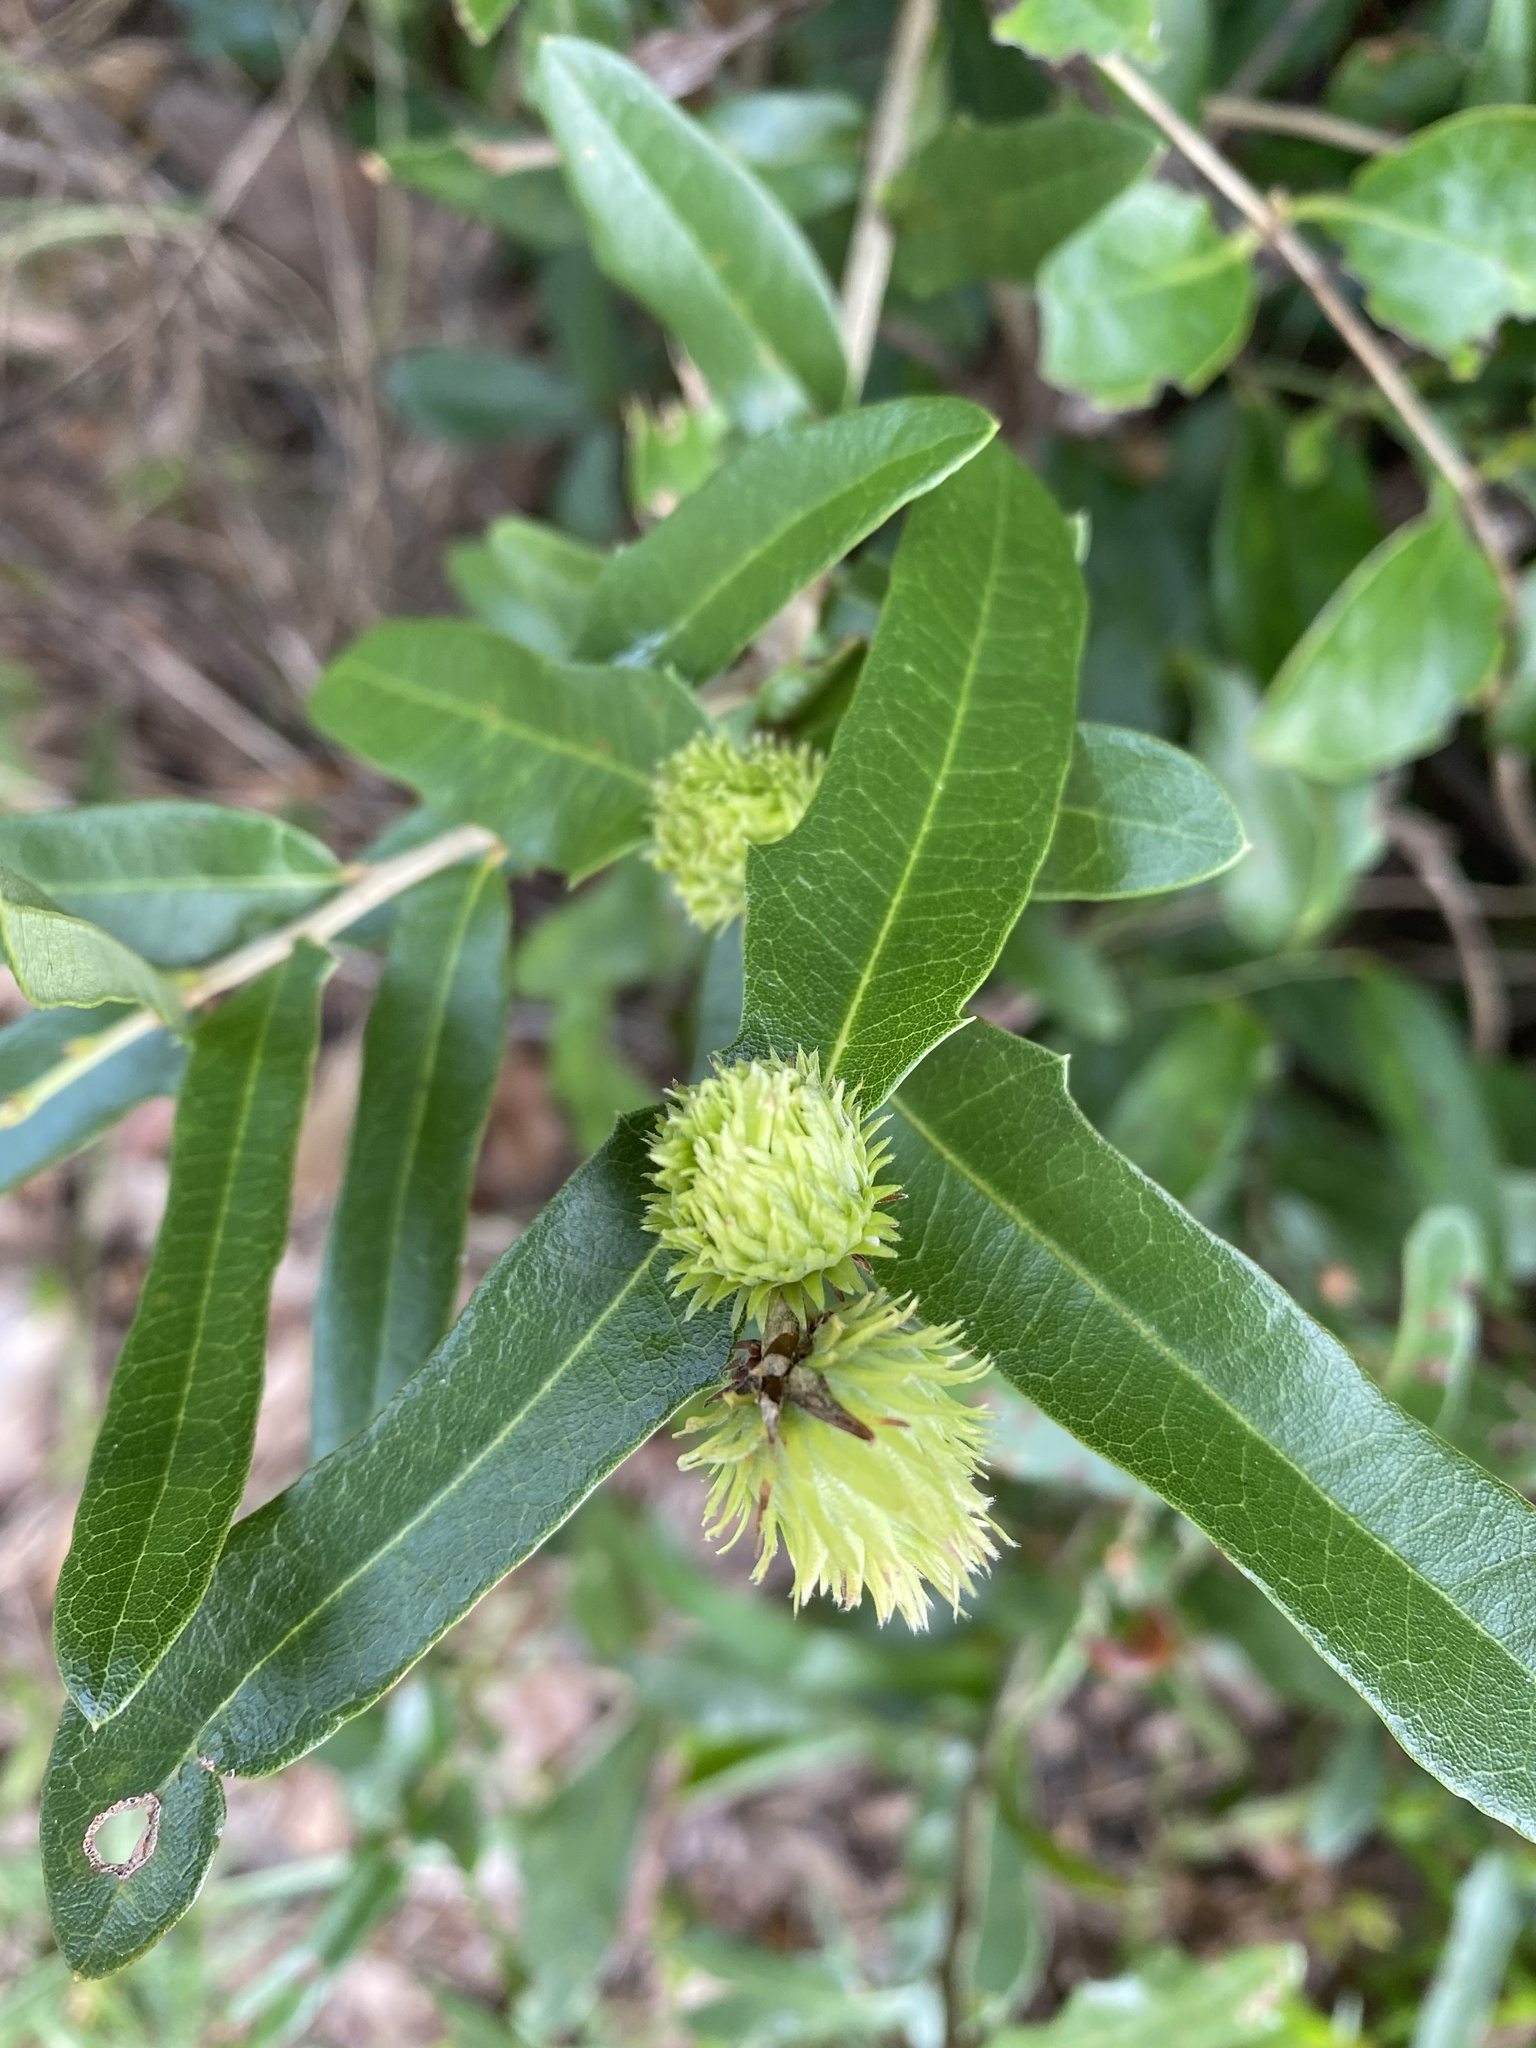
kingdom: Animalia
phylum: Arthropoda
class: Insecta
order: Hymenoptera
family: Cynipidae
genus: Andricus
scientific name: Andricus quercusfoliatus
